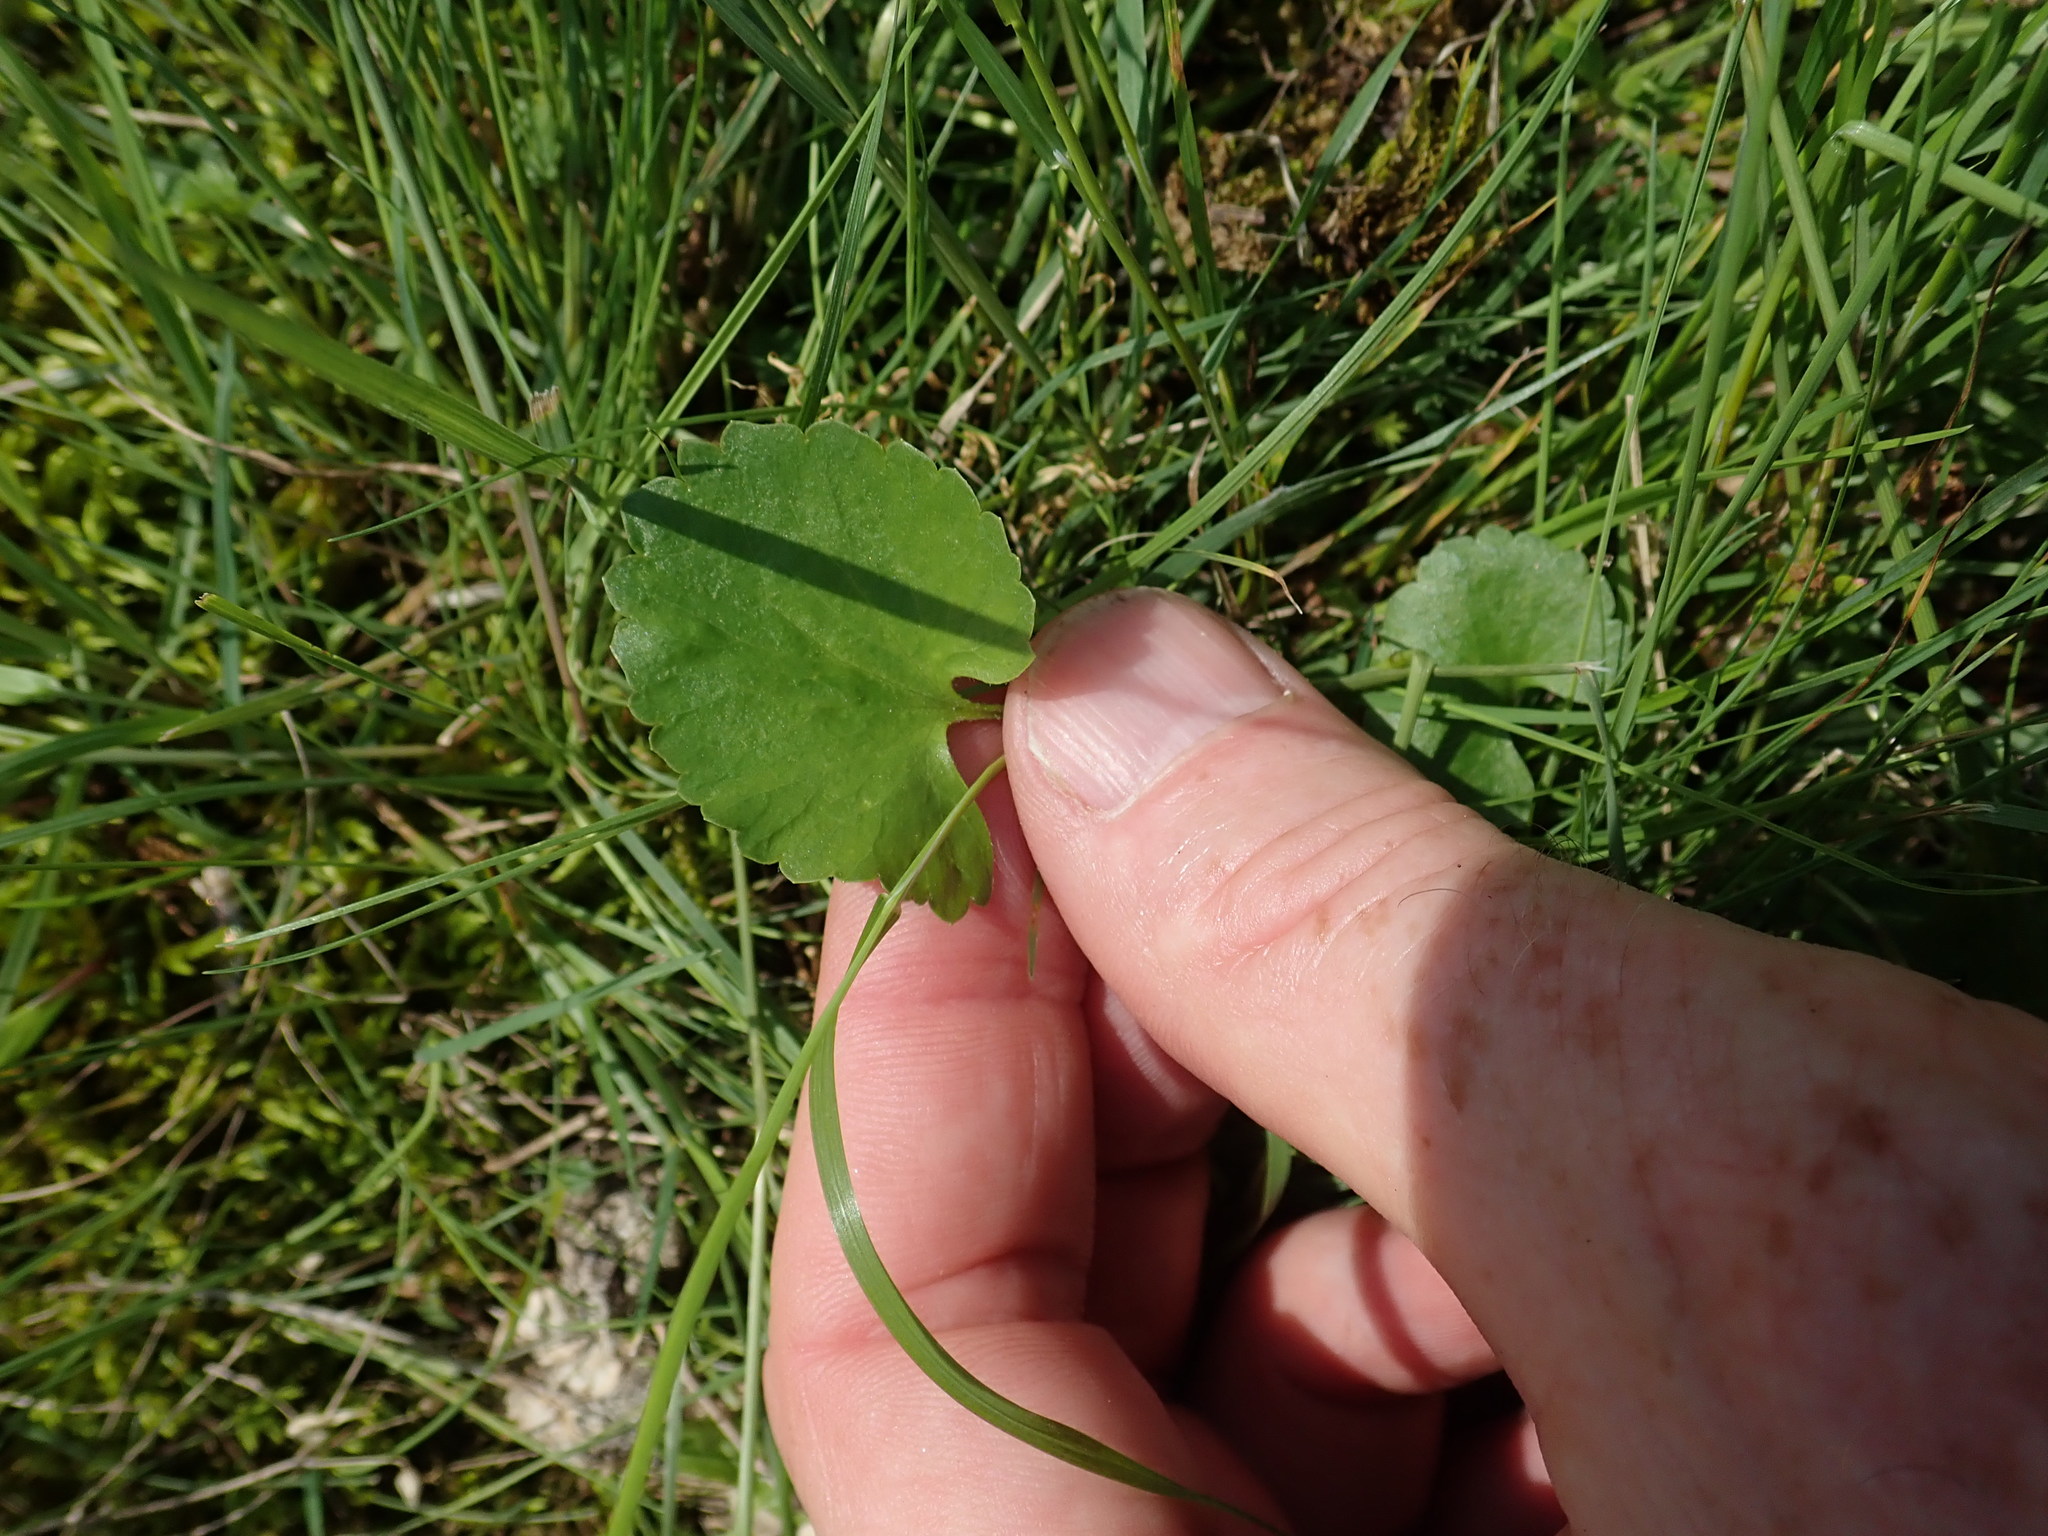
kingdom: Plantae
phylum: Tracheophyta
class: Magnoliopsida
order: Ranunculales
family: Ranunculaceae
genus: Ranunculus
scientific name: Ranunculus rhomboideus
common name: Prairie buttercup
